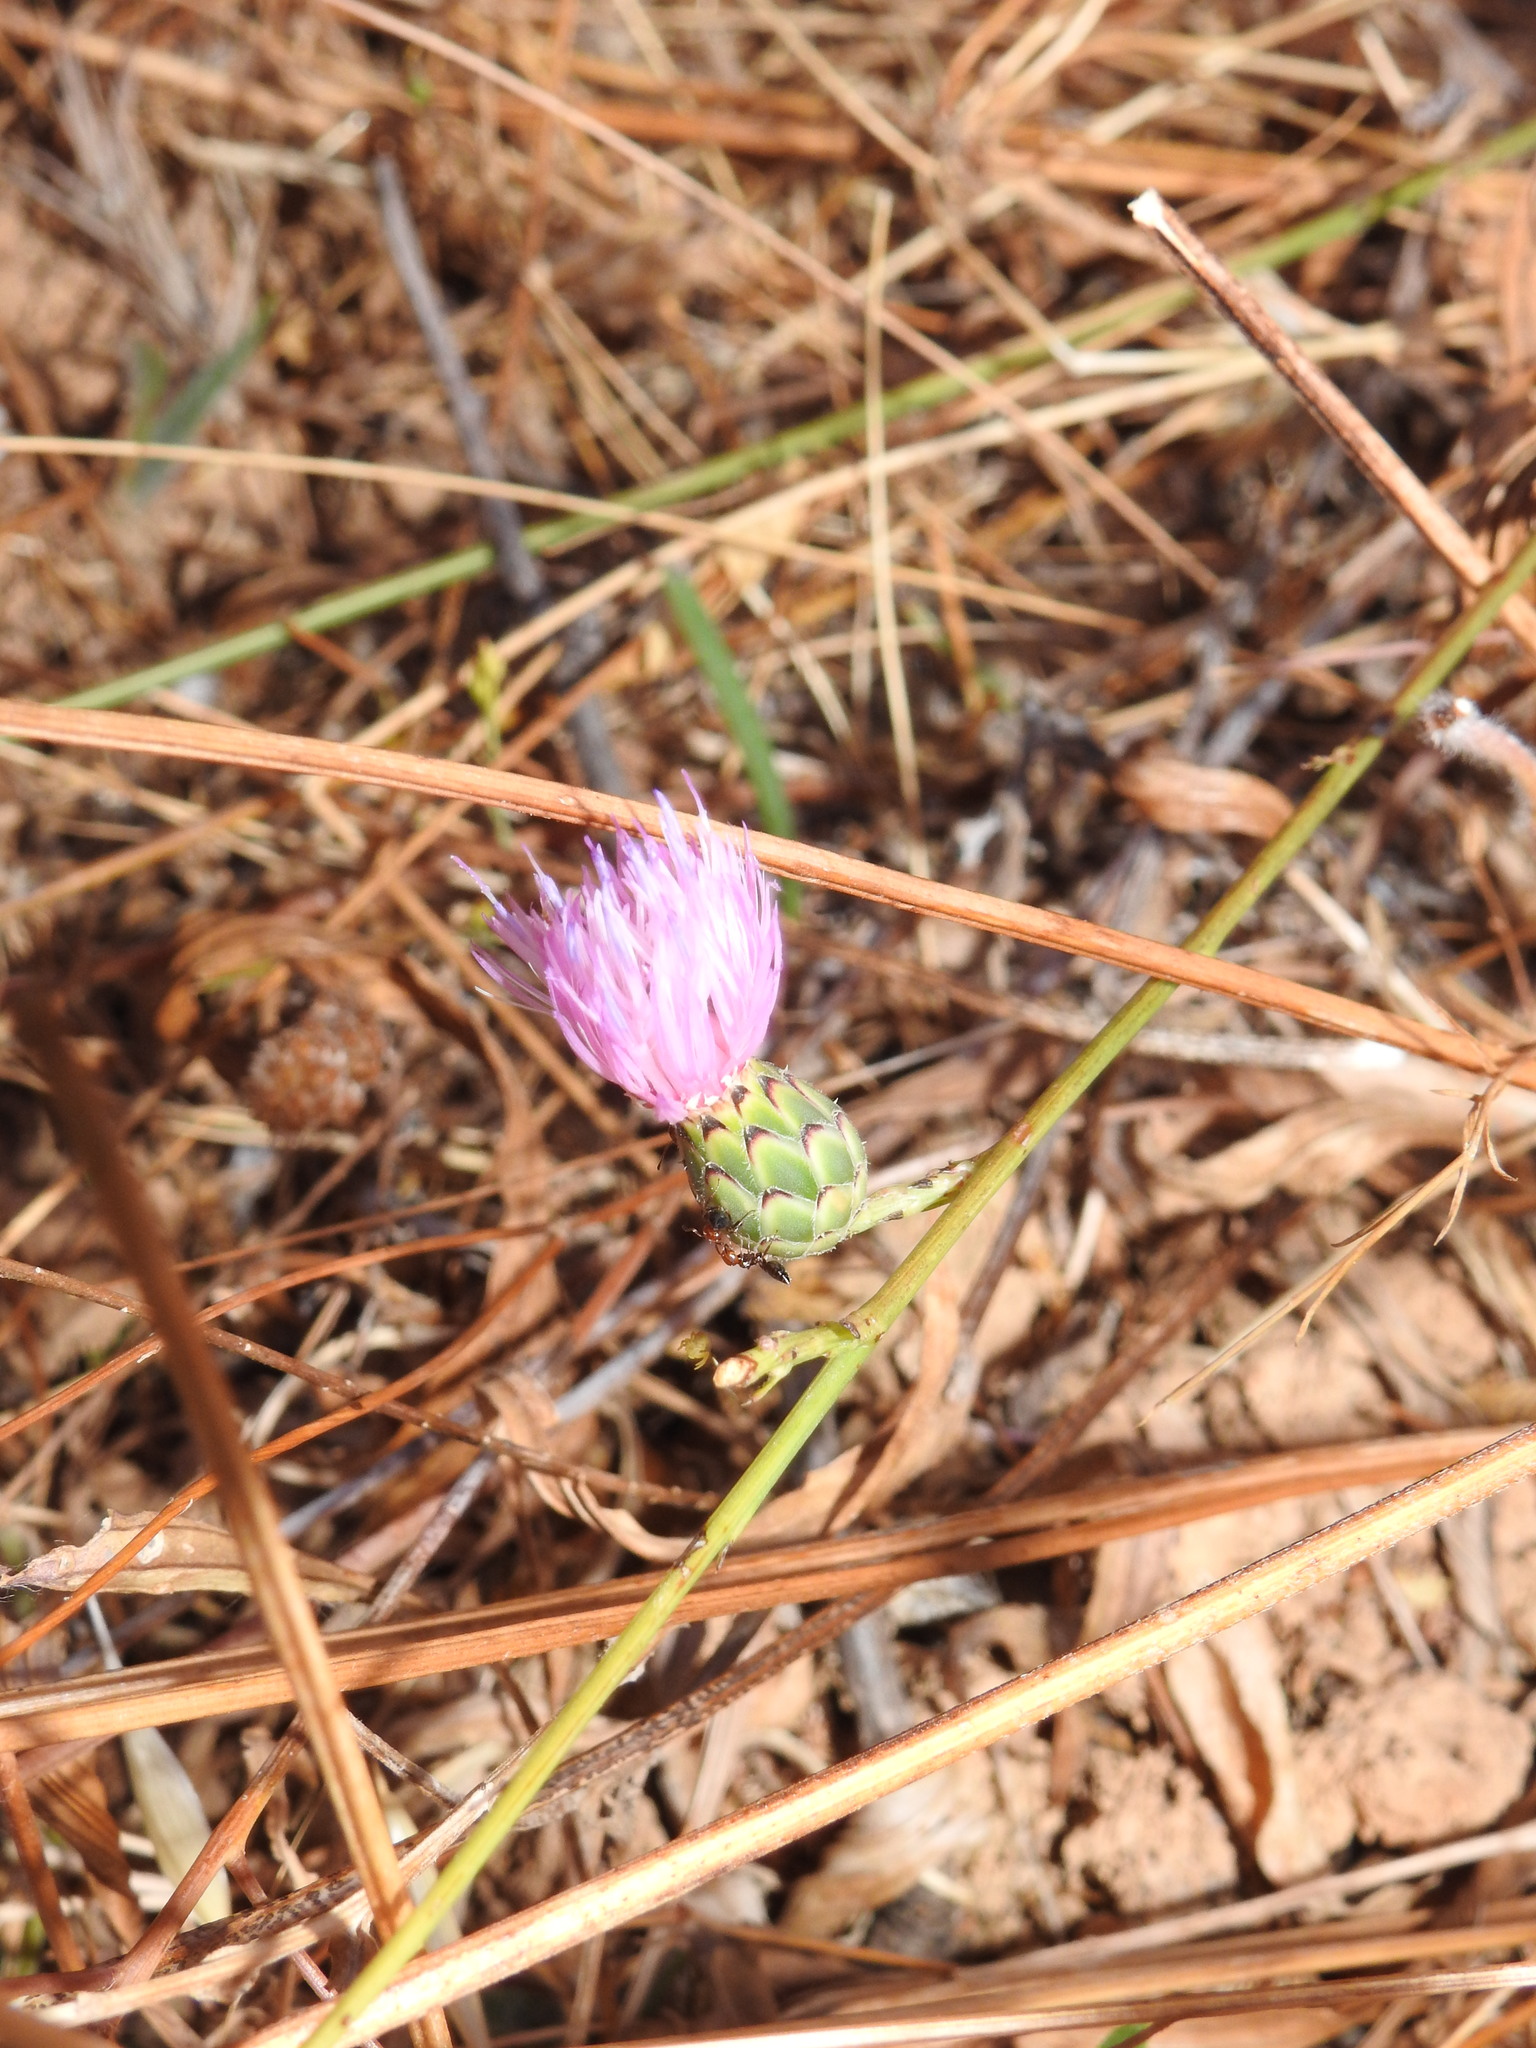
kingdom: Plantae
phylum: Tracheophyta
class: Magnoliopsida
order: Asterales
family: Asteraceae
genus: Mantisalca
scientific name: Mantisalca salmantica
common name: Dagger flower
